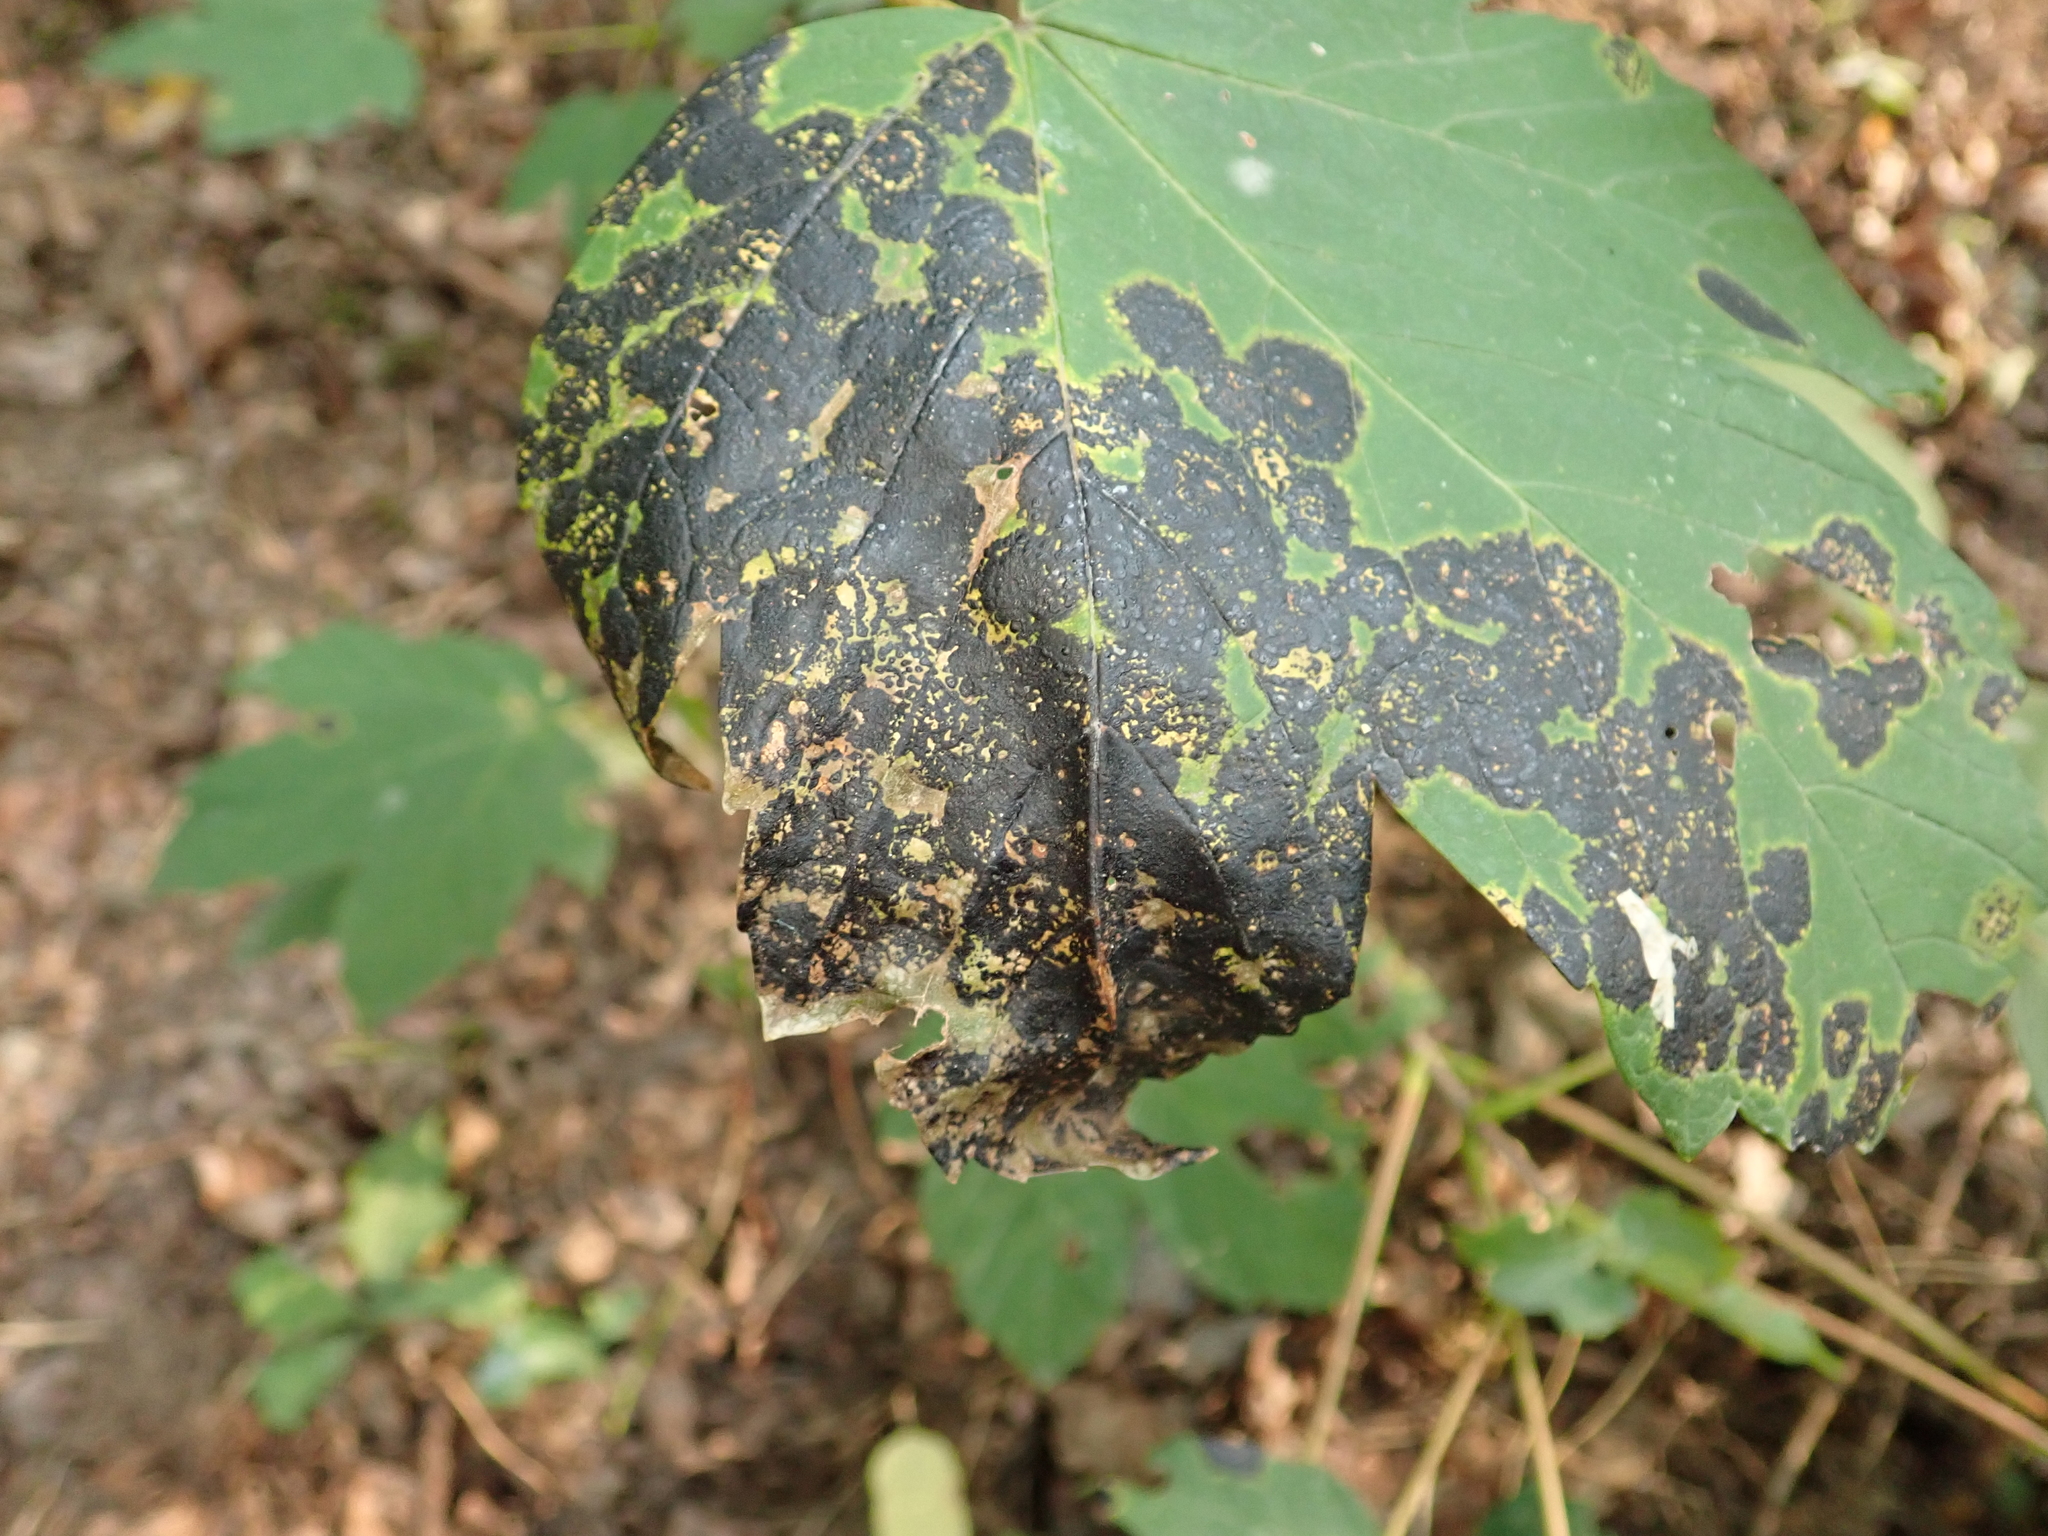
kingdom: Fungi
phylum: Ascomycota
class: Leotiomycetes
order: Rhytismatales
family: Rhytismataceae
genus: Rhytisma
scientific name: Rhytisma acerinum
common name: European tar spot
